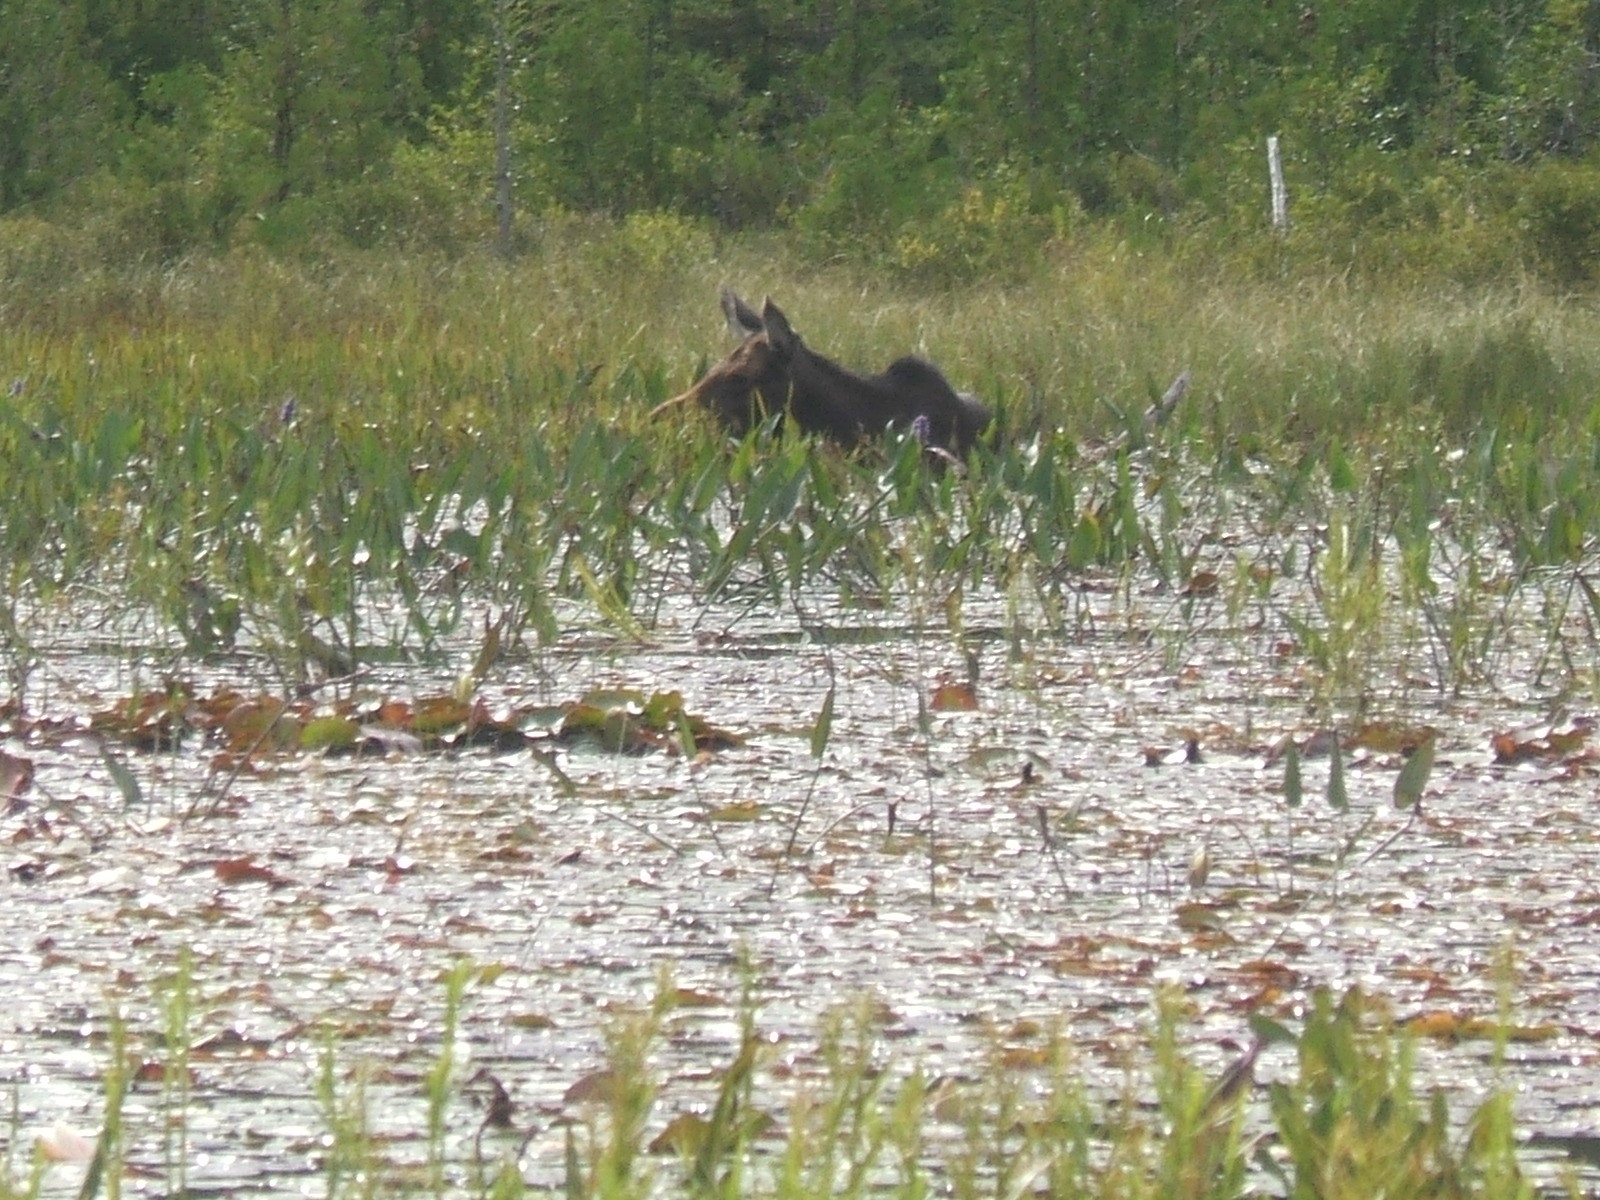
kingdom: Animalia
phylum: Chordata
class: Mammalia
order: Artiodactyla
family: Cervidae
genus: Alces
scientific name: Alces alces
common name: Moose
